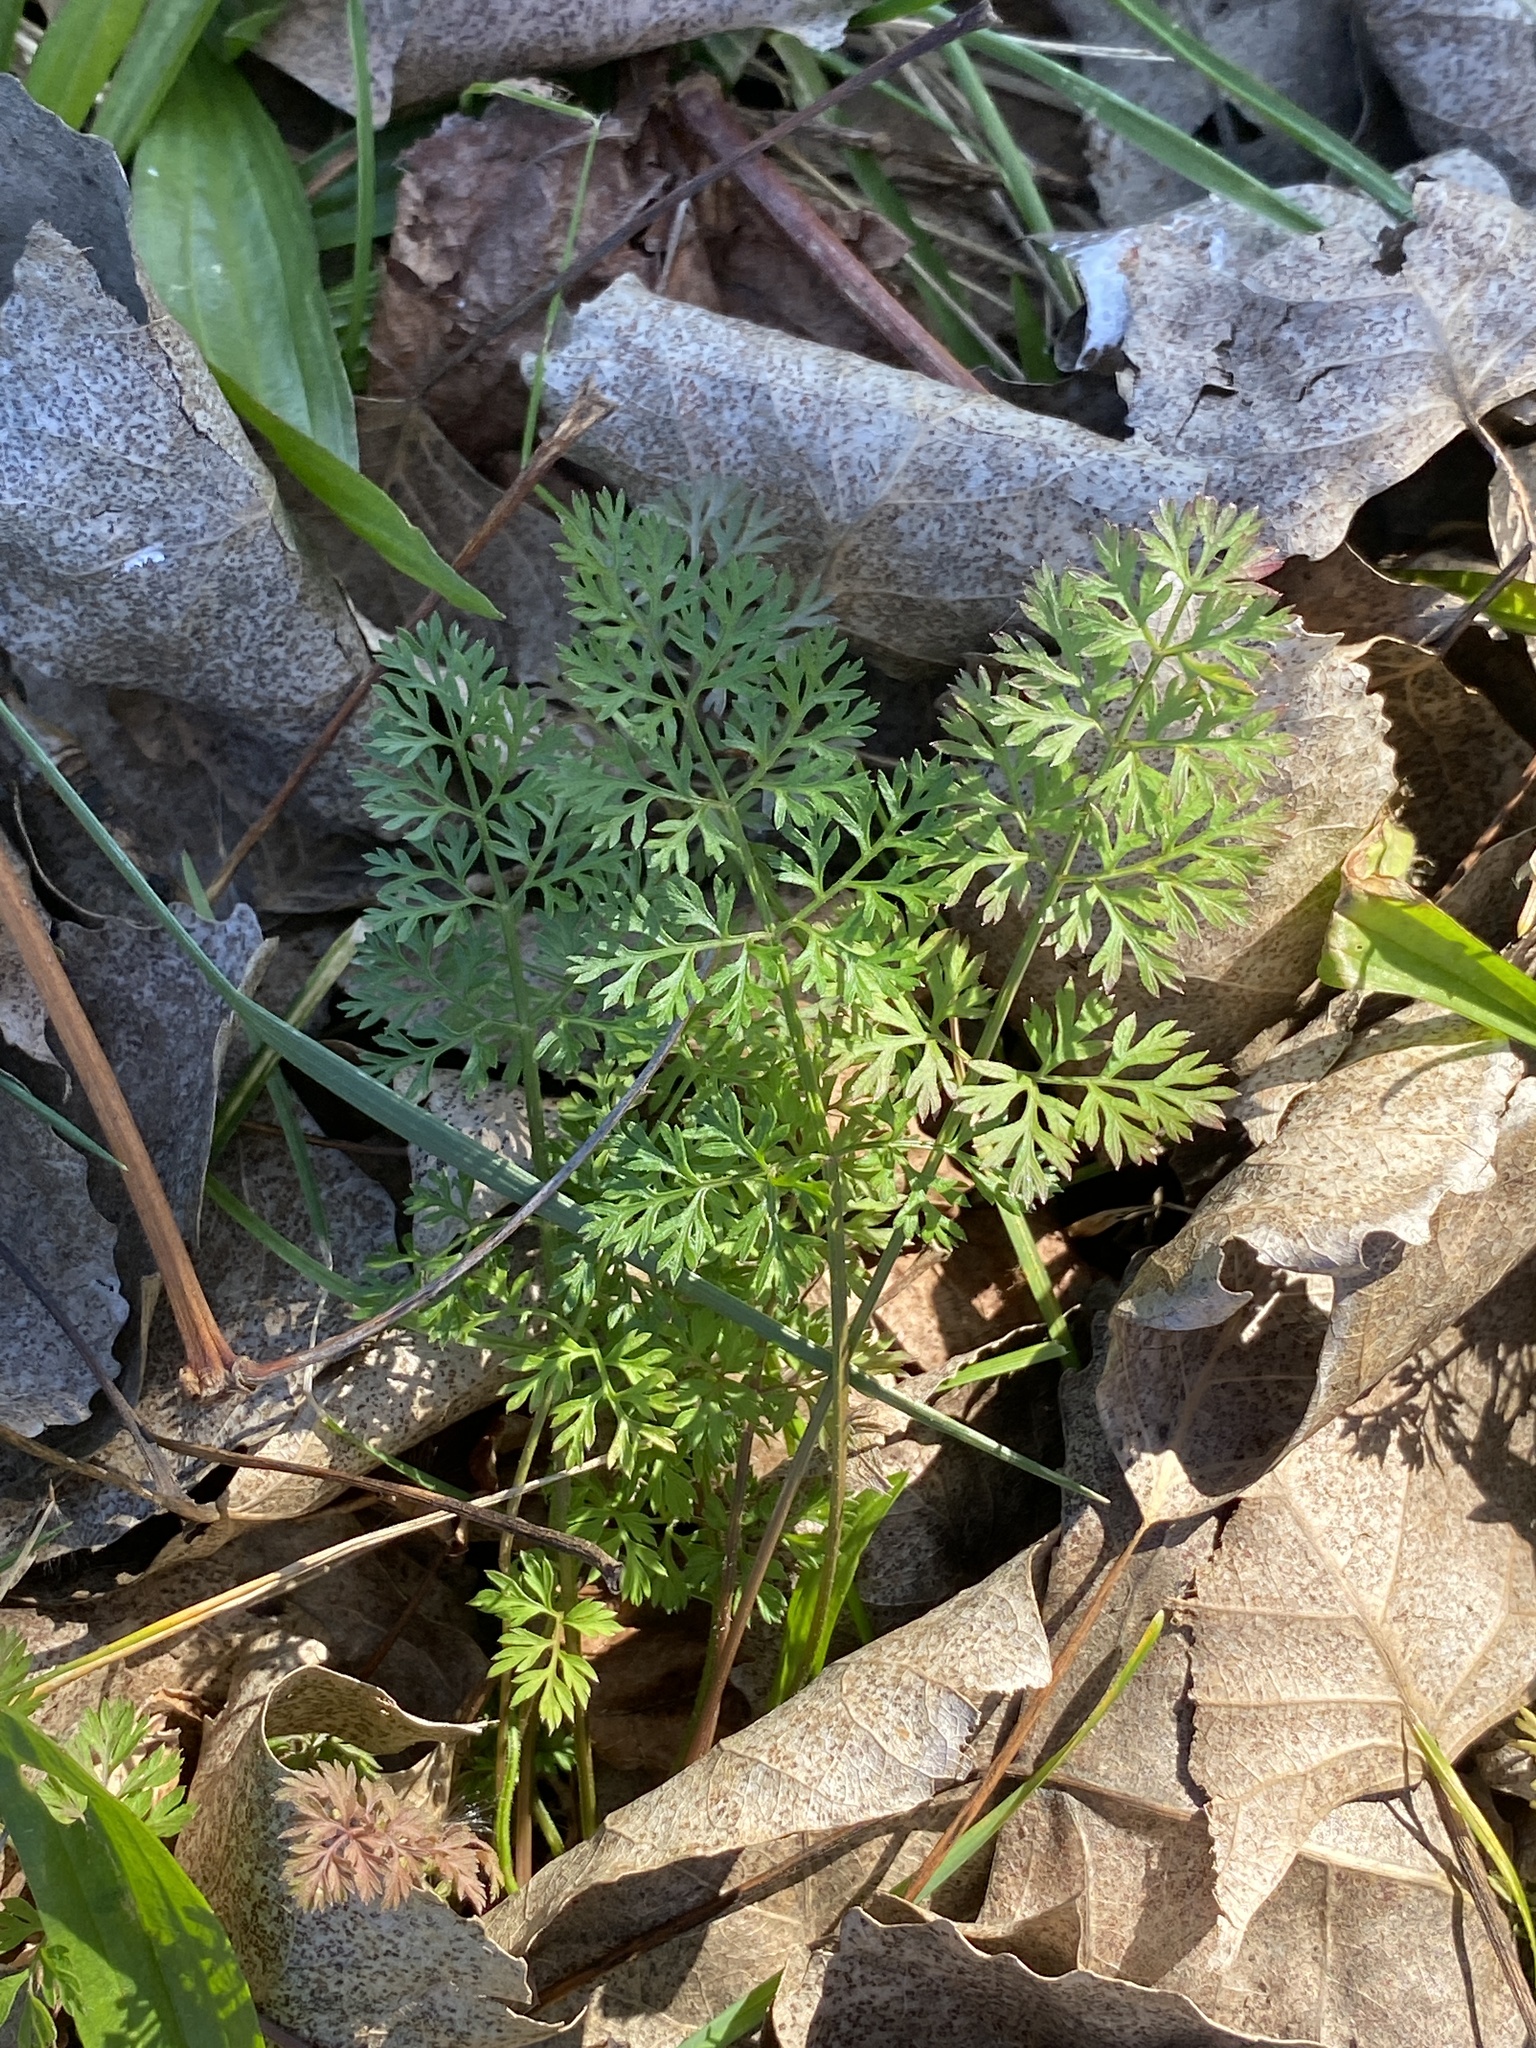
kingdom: Plantae
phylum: Tracheophyta
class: Magnoliopsida
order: Apiales
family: Apiaceae
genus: Daucus
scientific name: Daucus carota
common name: Wild carrot
